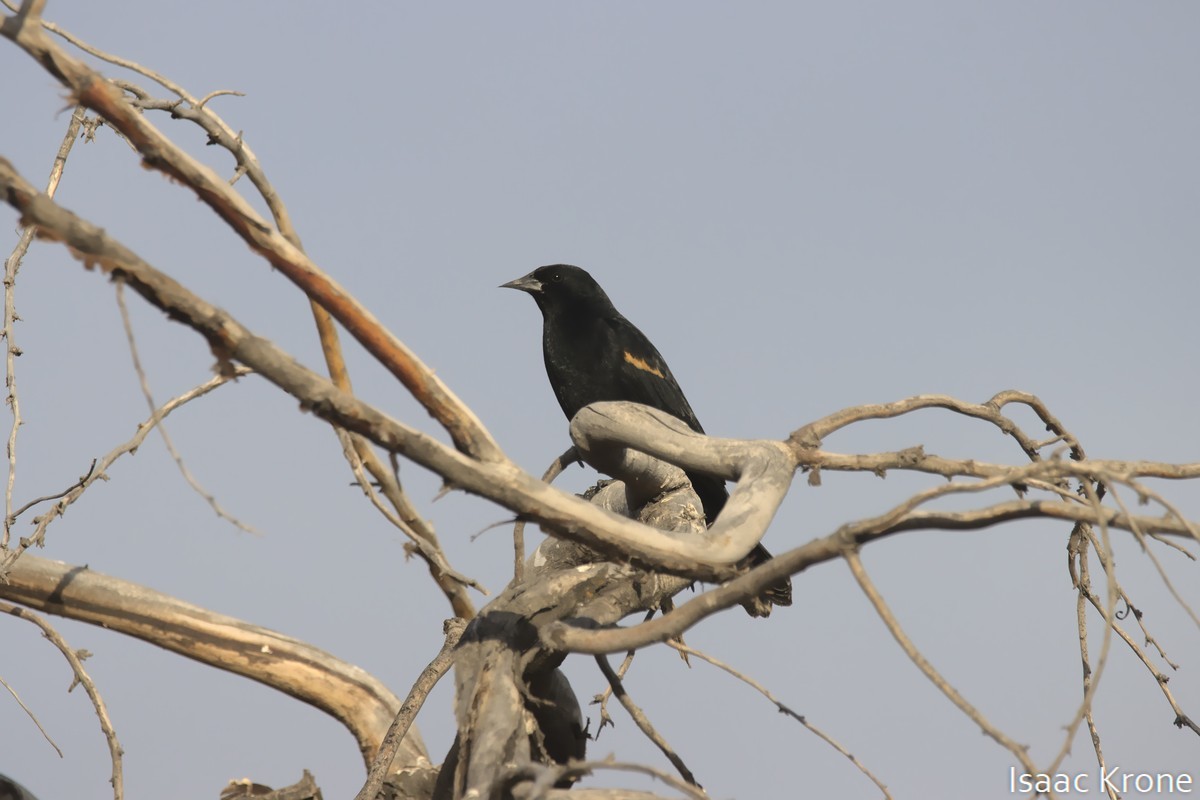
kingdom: Animalia
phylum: Chordata
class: Aves
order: Passeriformes
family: Icteridae
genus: Agelaius
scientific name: Agelaius phoeniceus
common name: Red-winged blackbird
